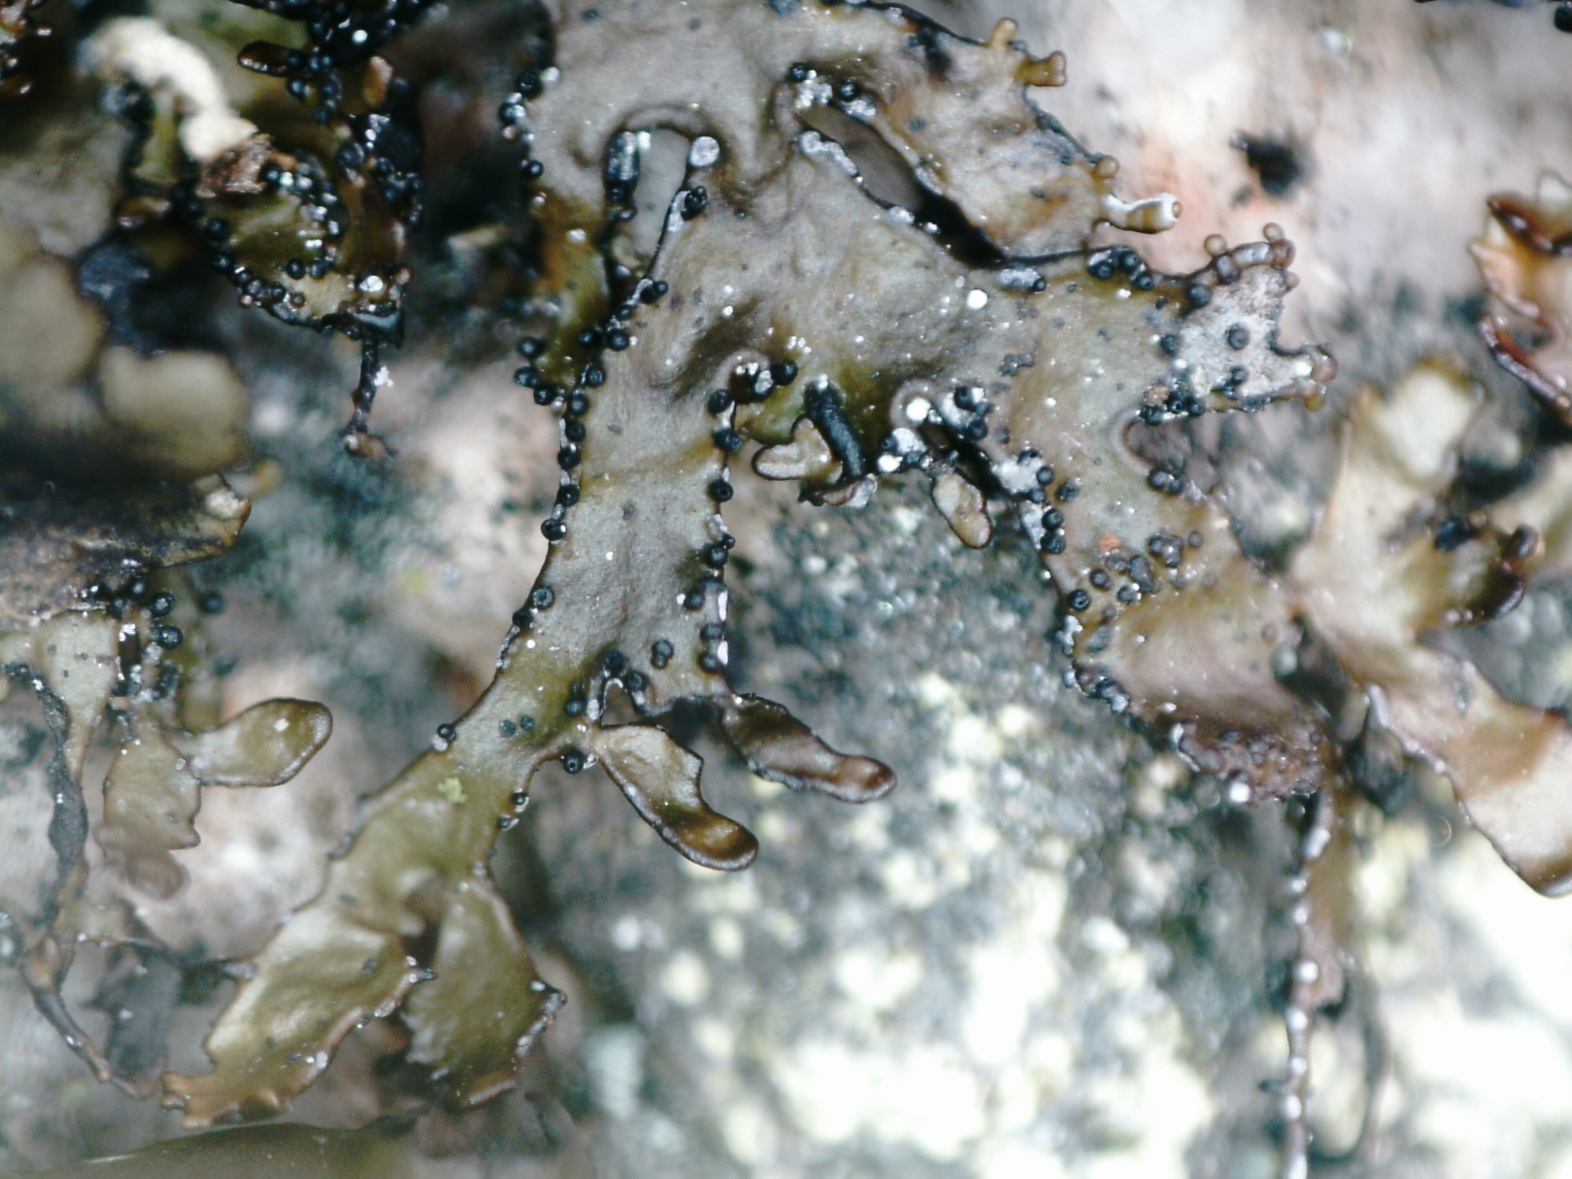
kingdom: Fungi
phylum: Ascomycota
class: Lecanoromycetes
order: Lecanorales
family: Parmeliaceae
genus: Melanelia
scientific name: Melanelia hepatizon
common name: Rimmed camouflage lichen
